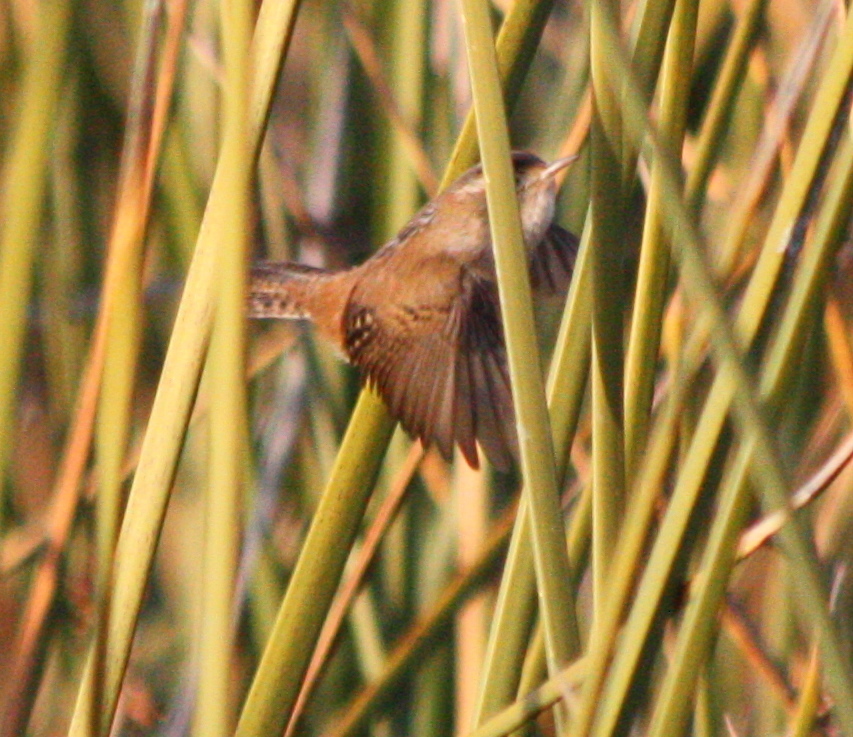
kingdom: Animalia
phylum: Chordata
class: Aves
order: Passeriformes
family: Troglodytidae
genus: Cistothorus
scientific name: Cistothorus palustris
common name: Marsh wren
